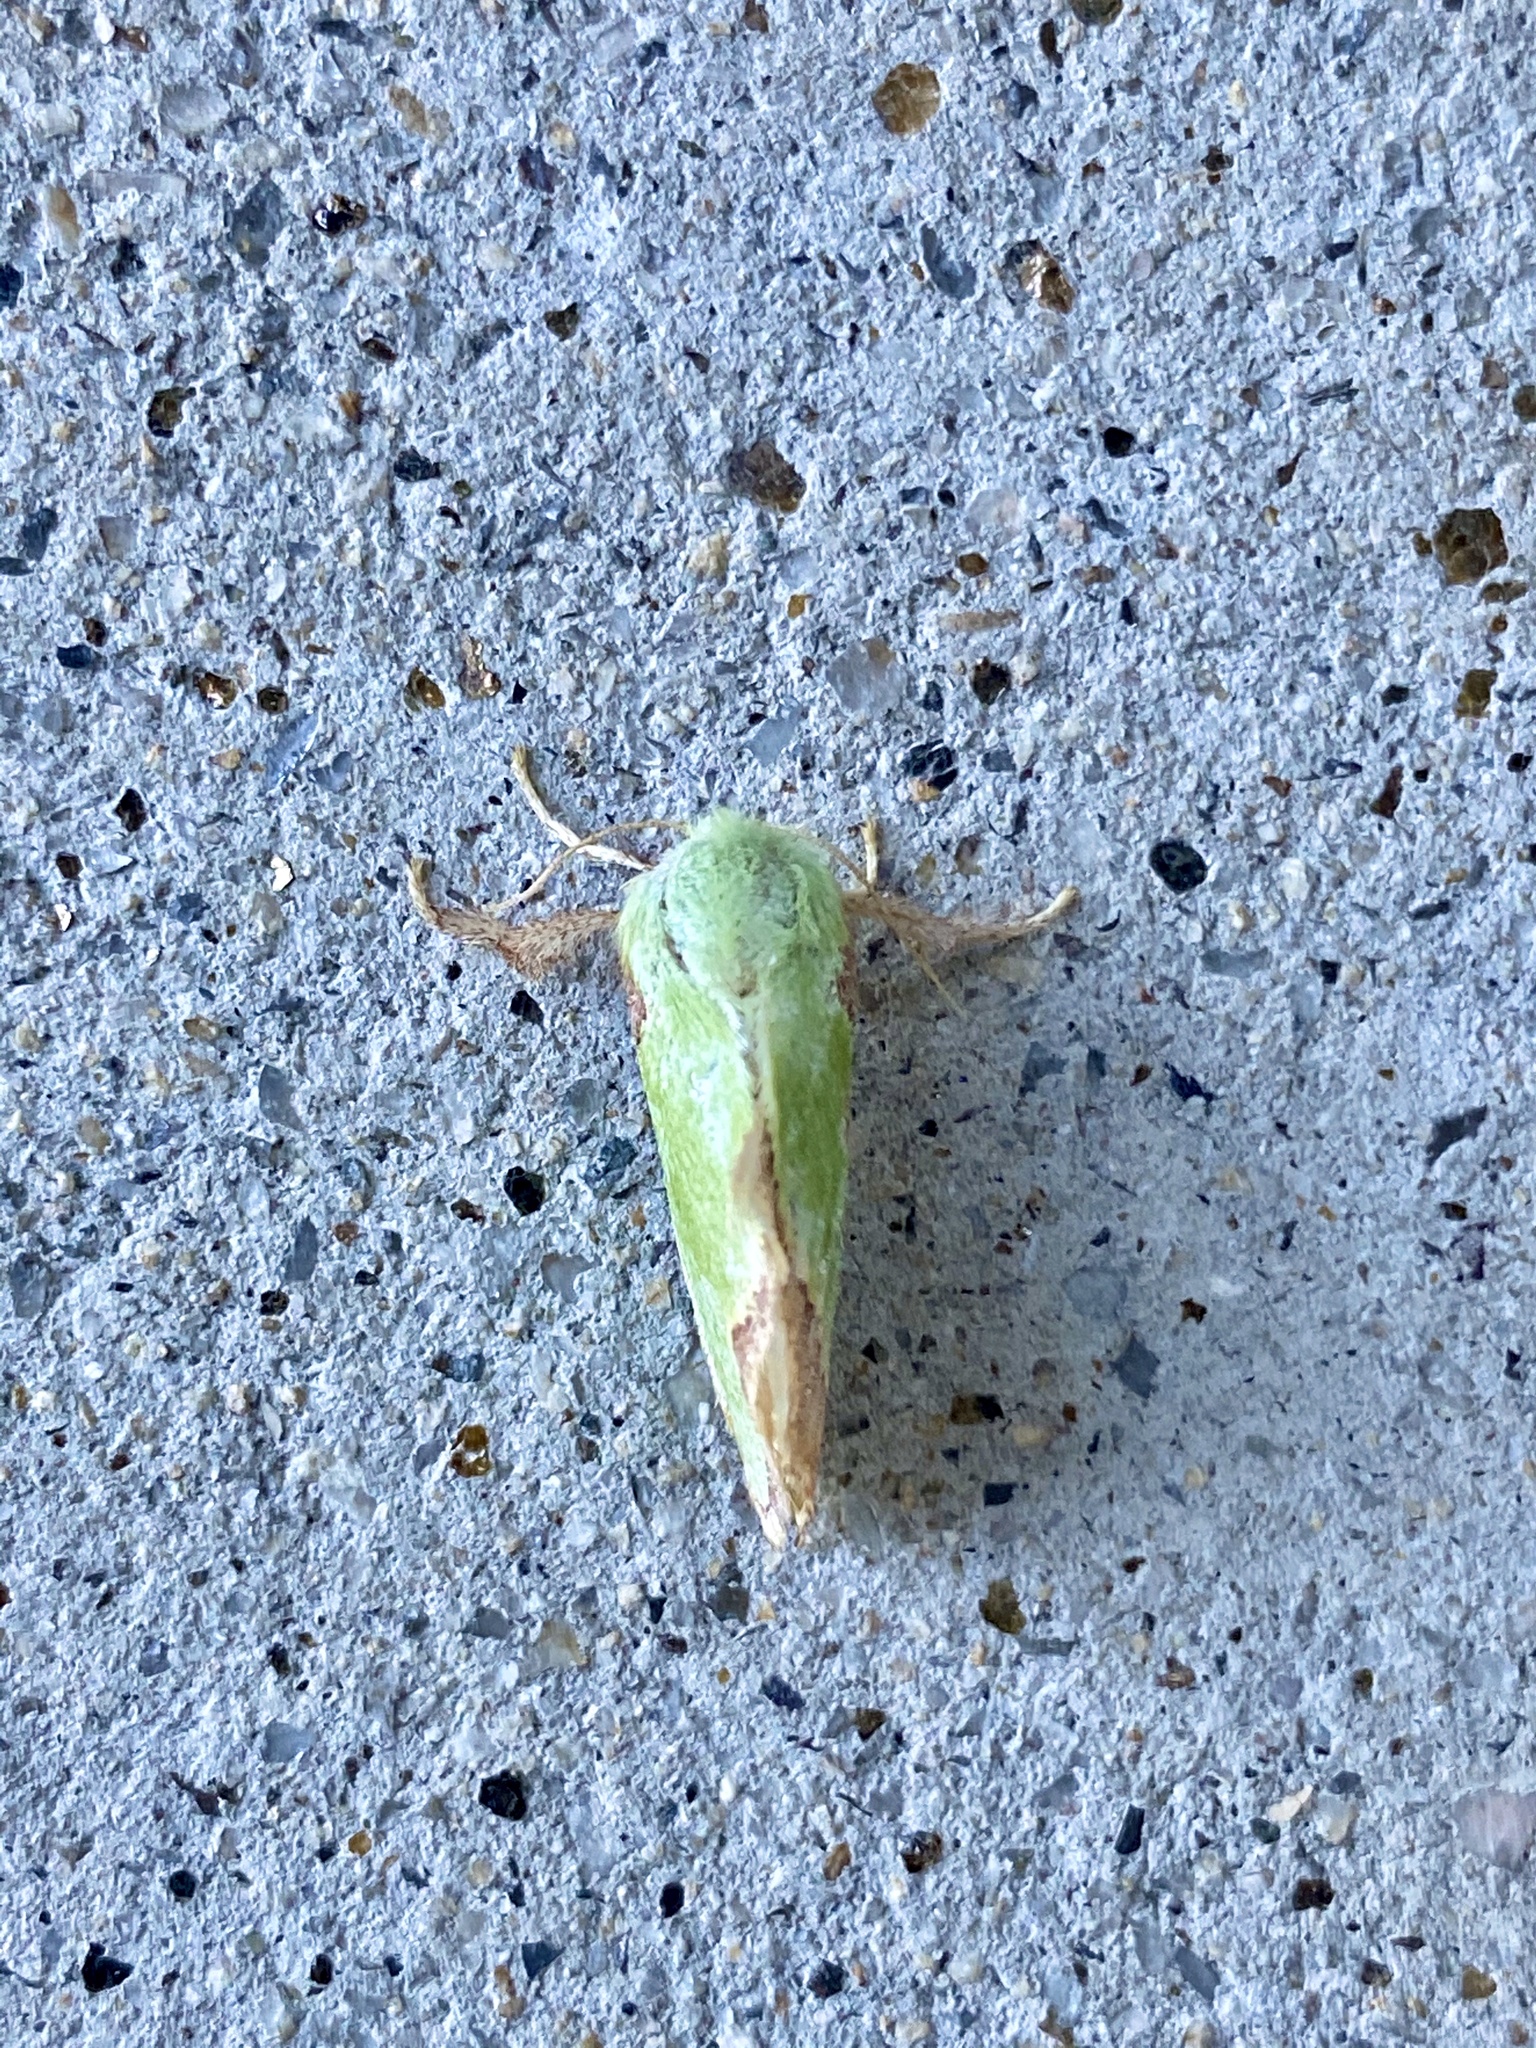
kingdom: Animalia
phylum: Arthropoda
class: Insecta
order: Lepidoptera
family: Limacodidae
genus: Parasa
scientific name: Parasa hilarula
